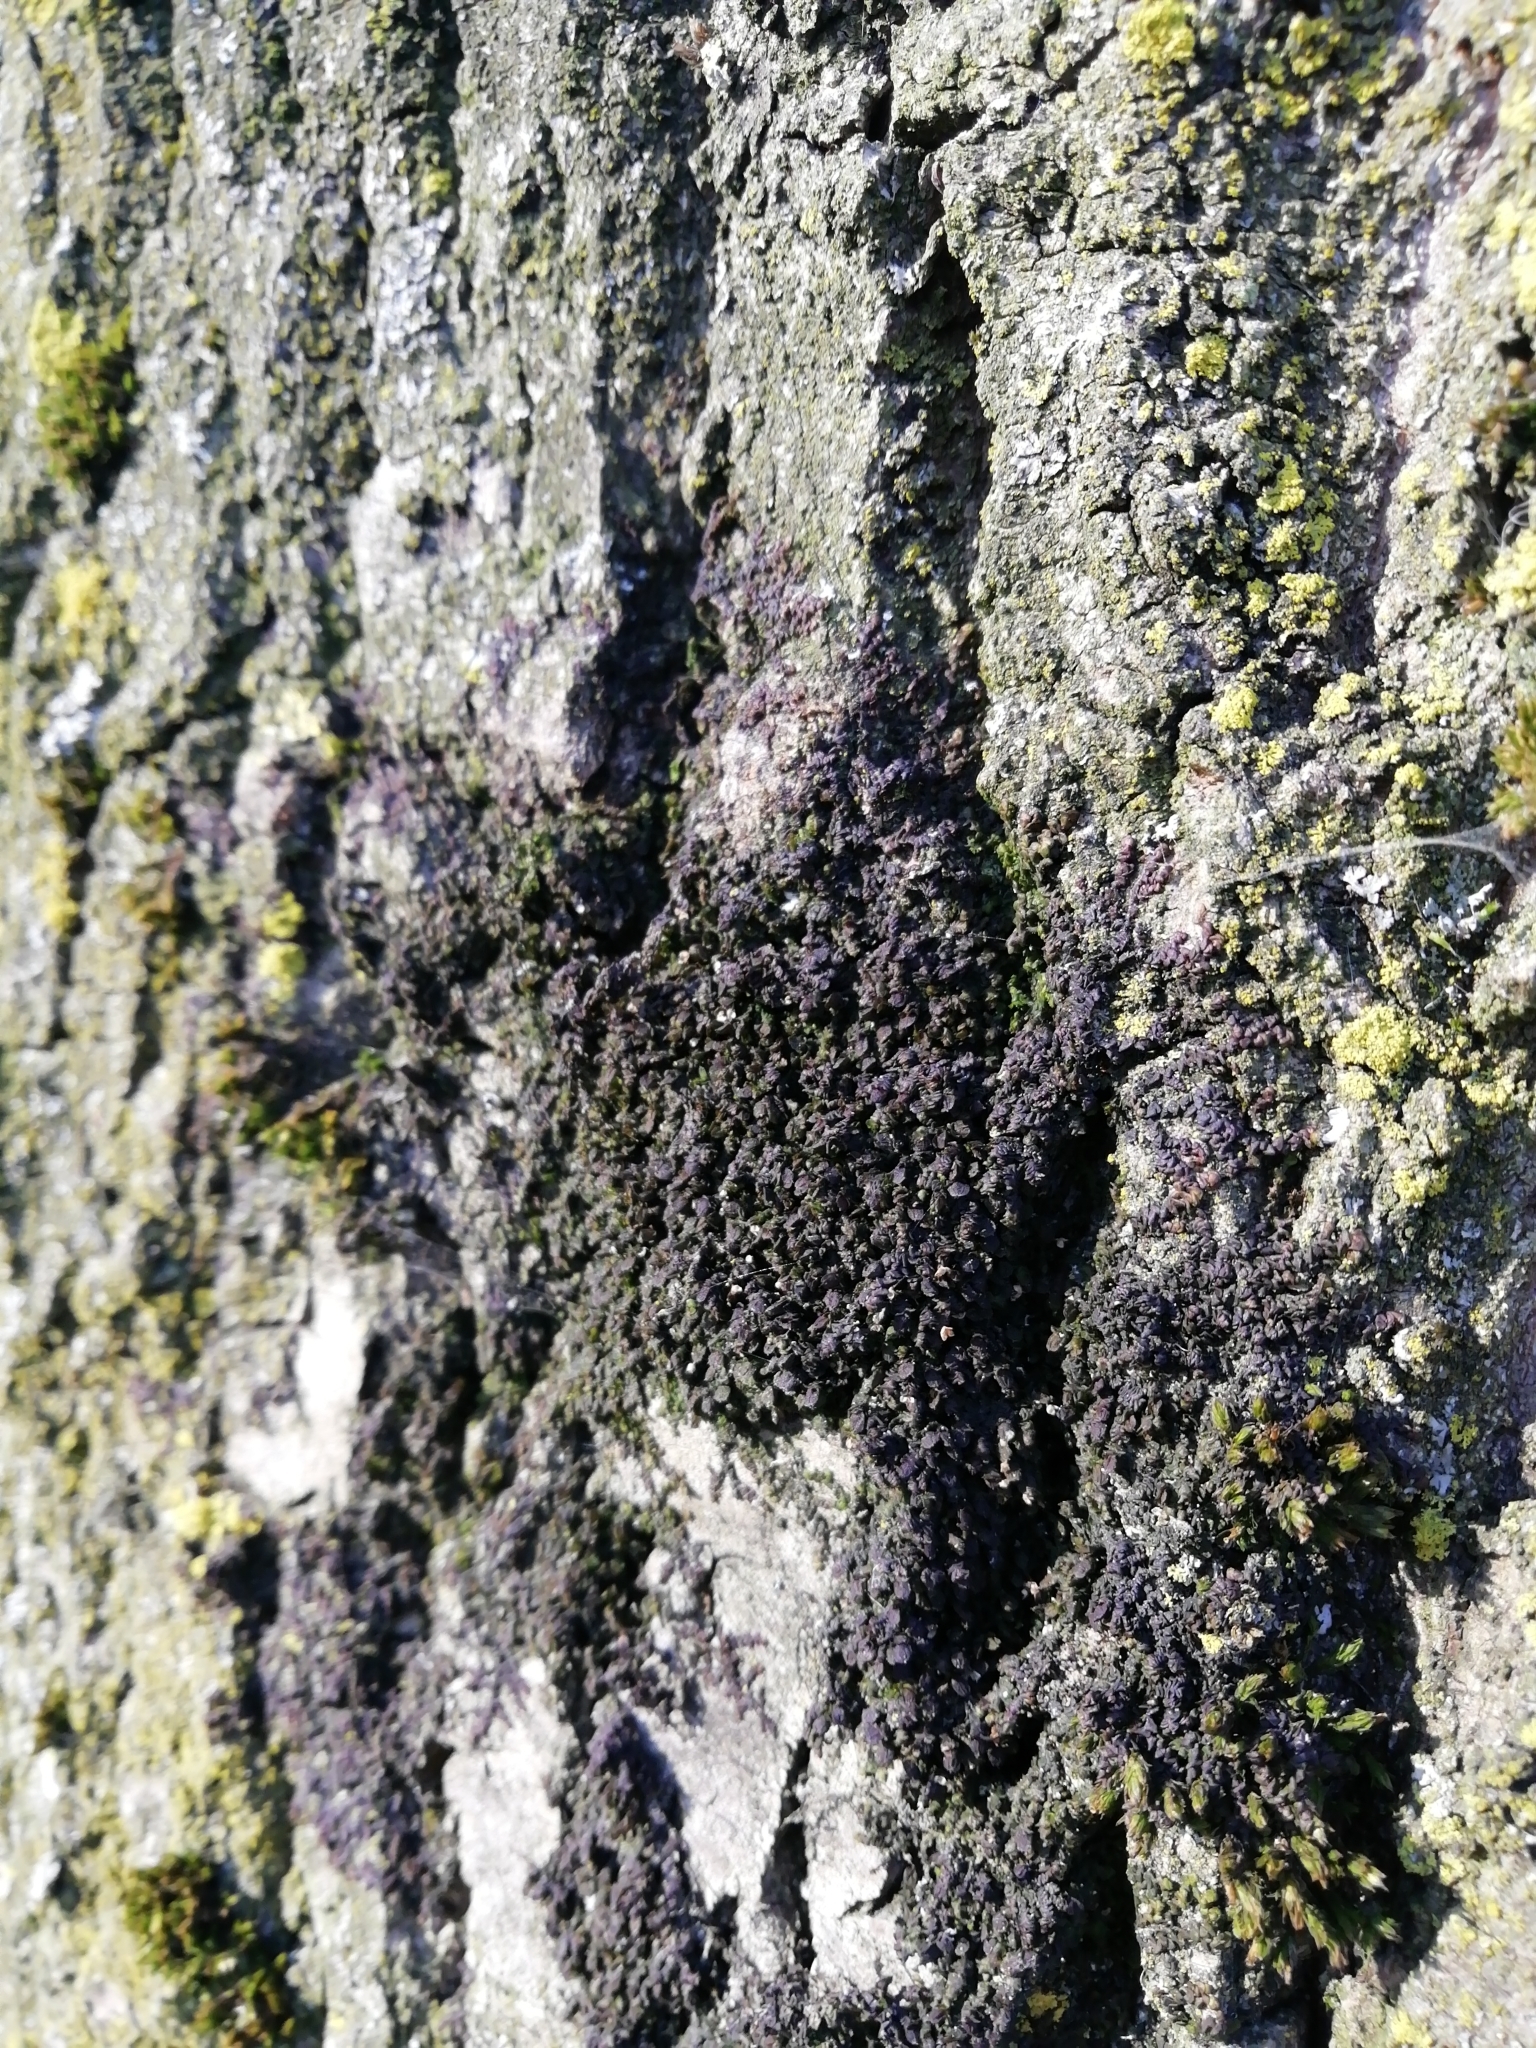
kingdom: Plantae
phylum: Marchantiophyta
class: Jungermanniopsida
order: Porellales
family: Frullaniaceae
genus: Frullania
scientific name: Frullania dilatata
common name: Dilated scalewort
